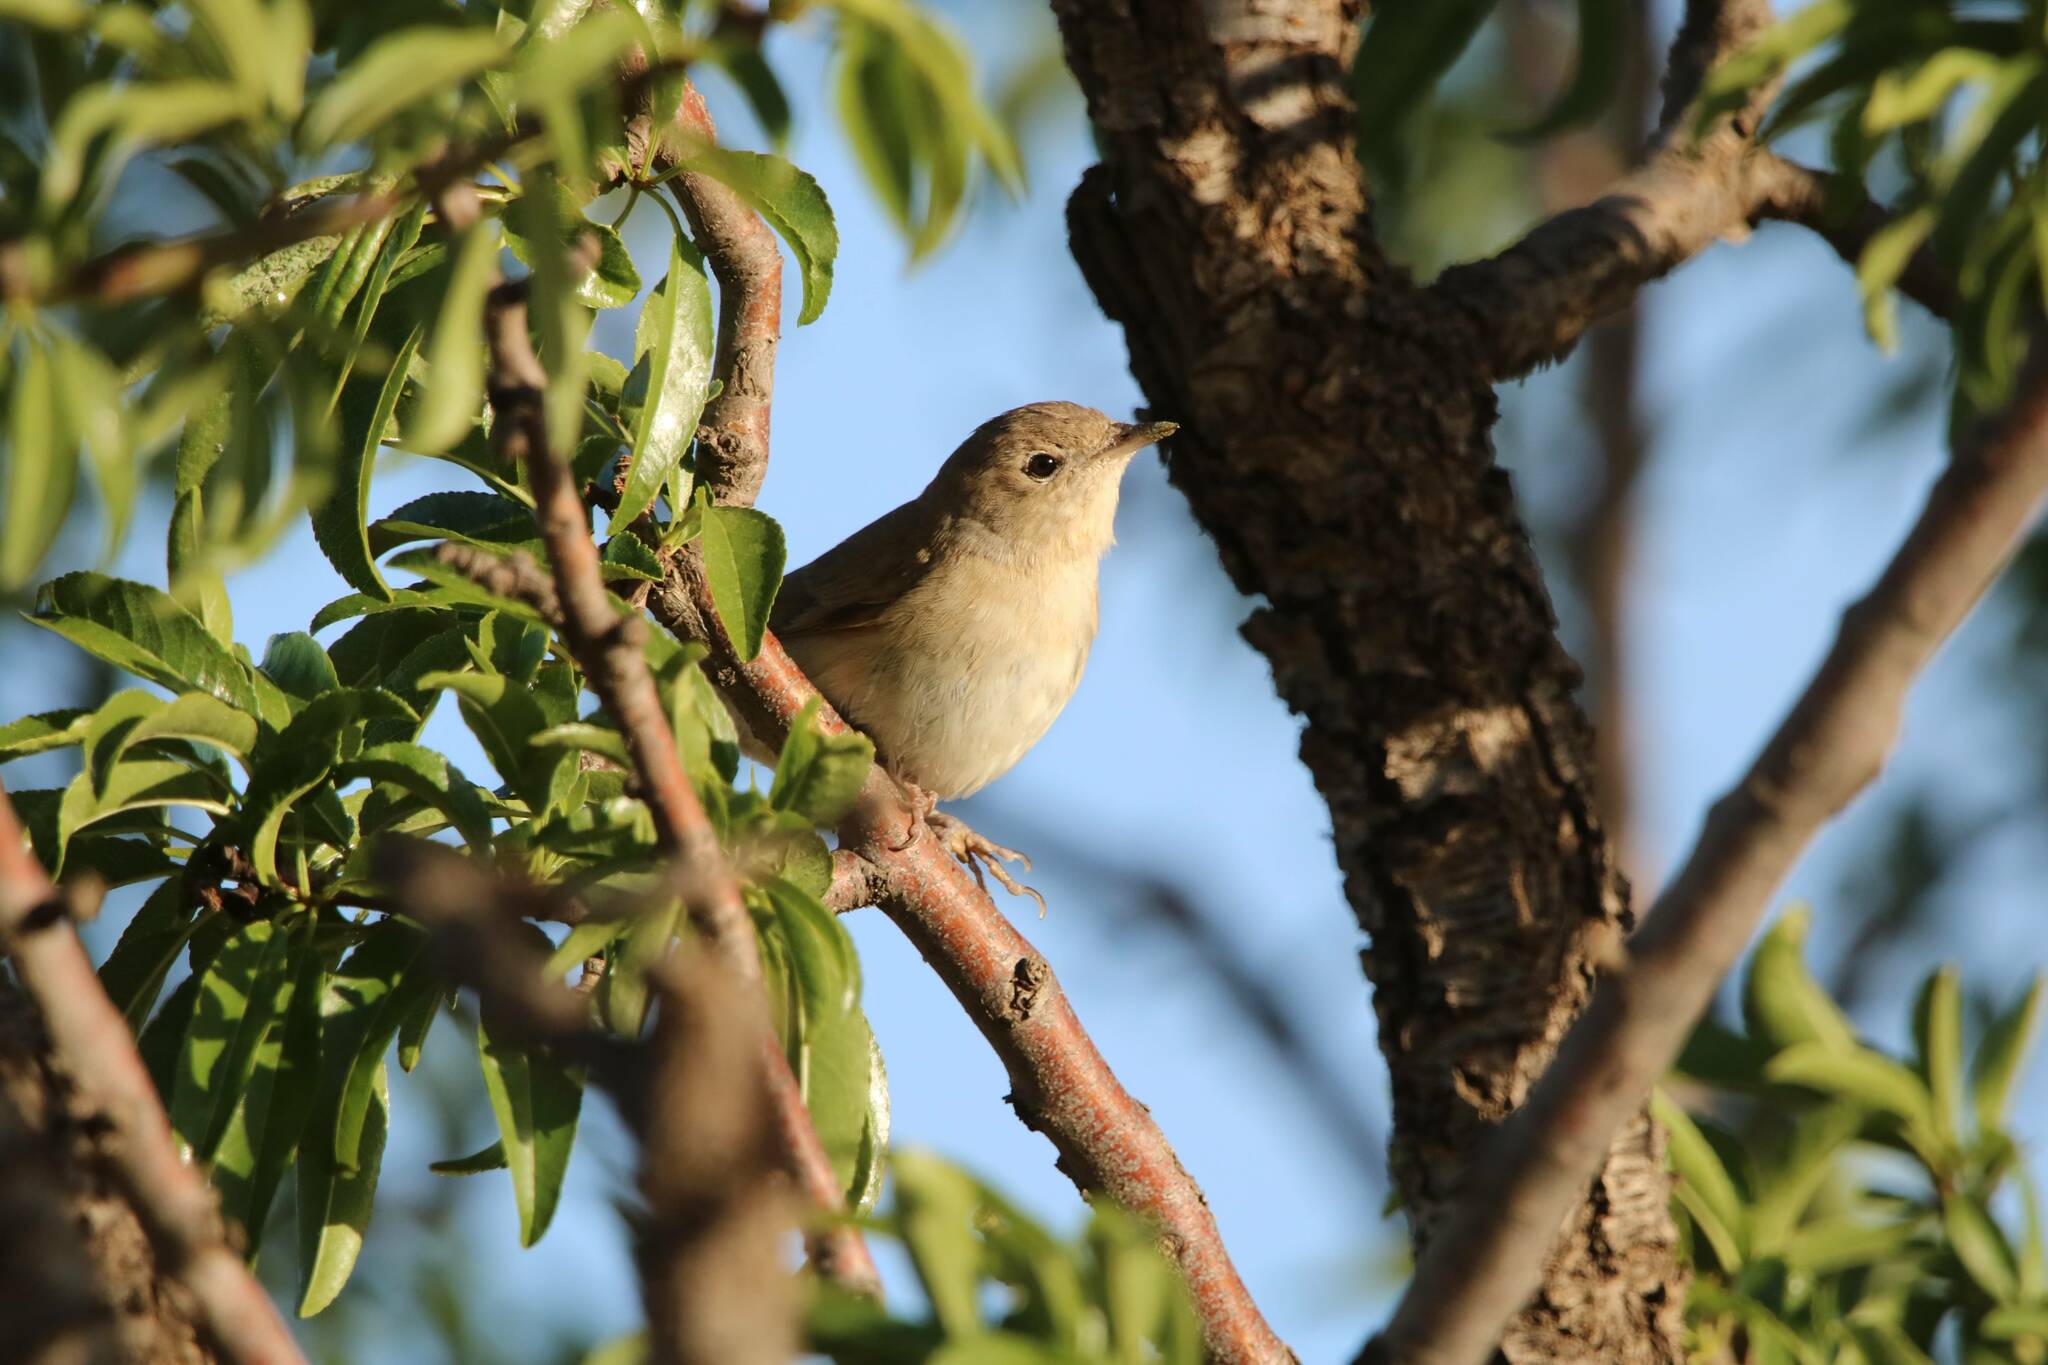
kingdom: Animalia
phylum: Chordata
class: Aves
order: Passeriformes
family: Sylviidae
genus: Sylvia
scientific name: Sylvia borin
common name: Garden warbler
